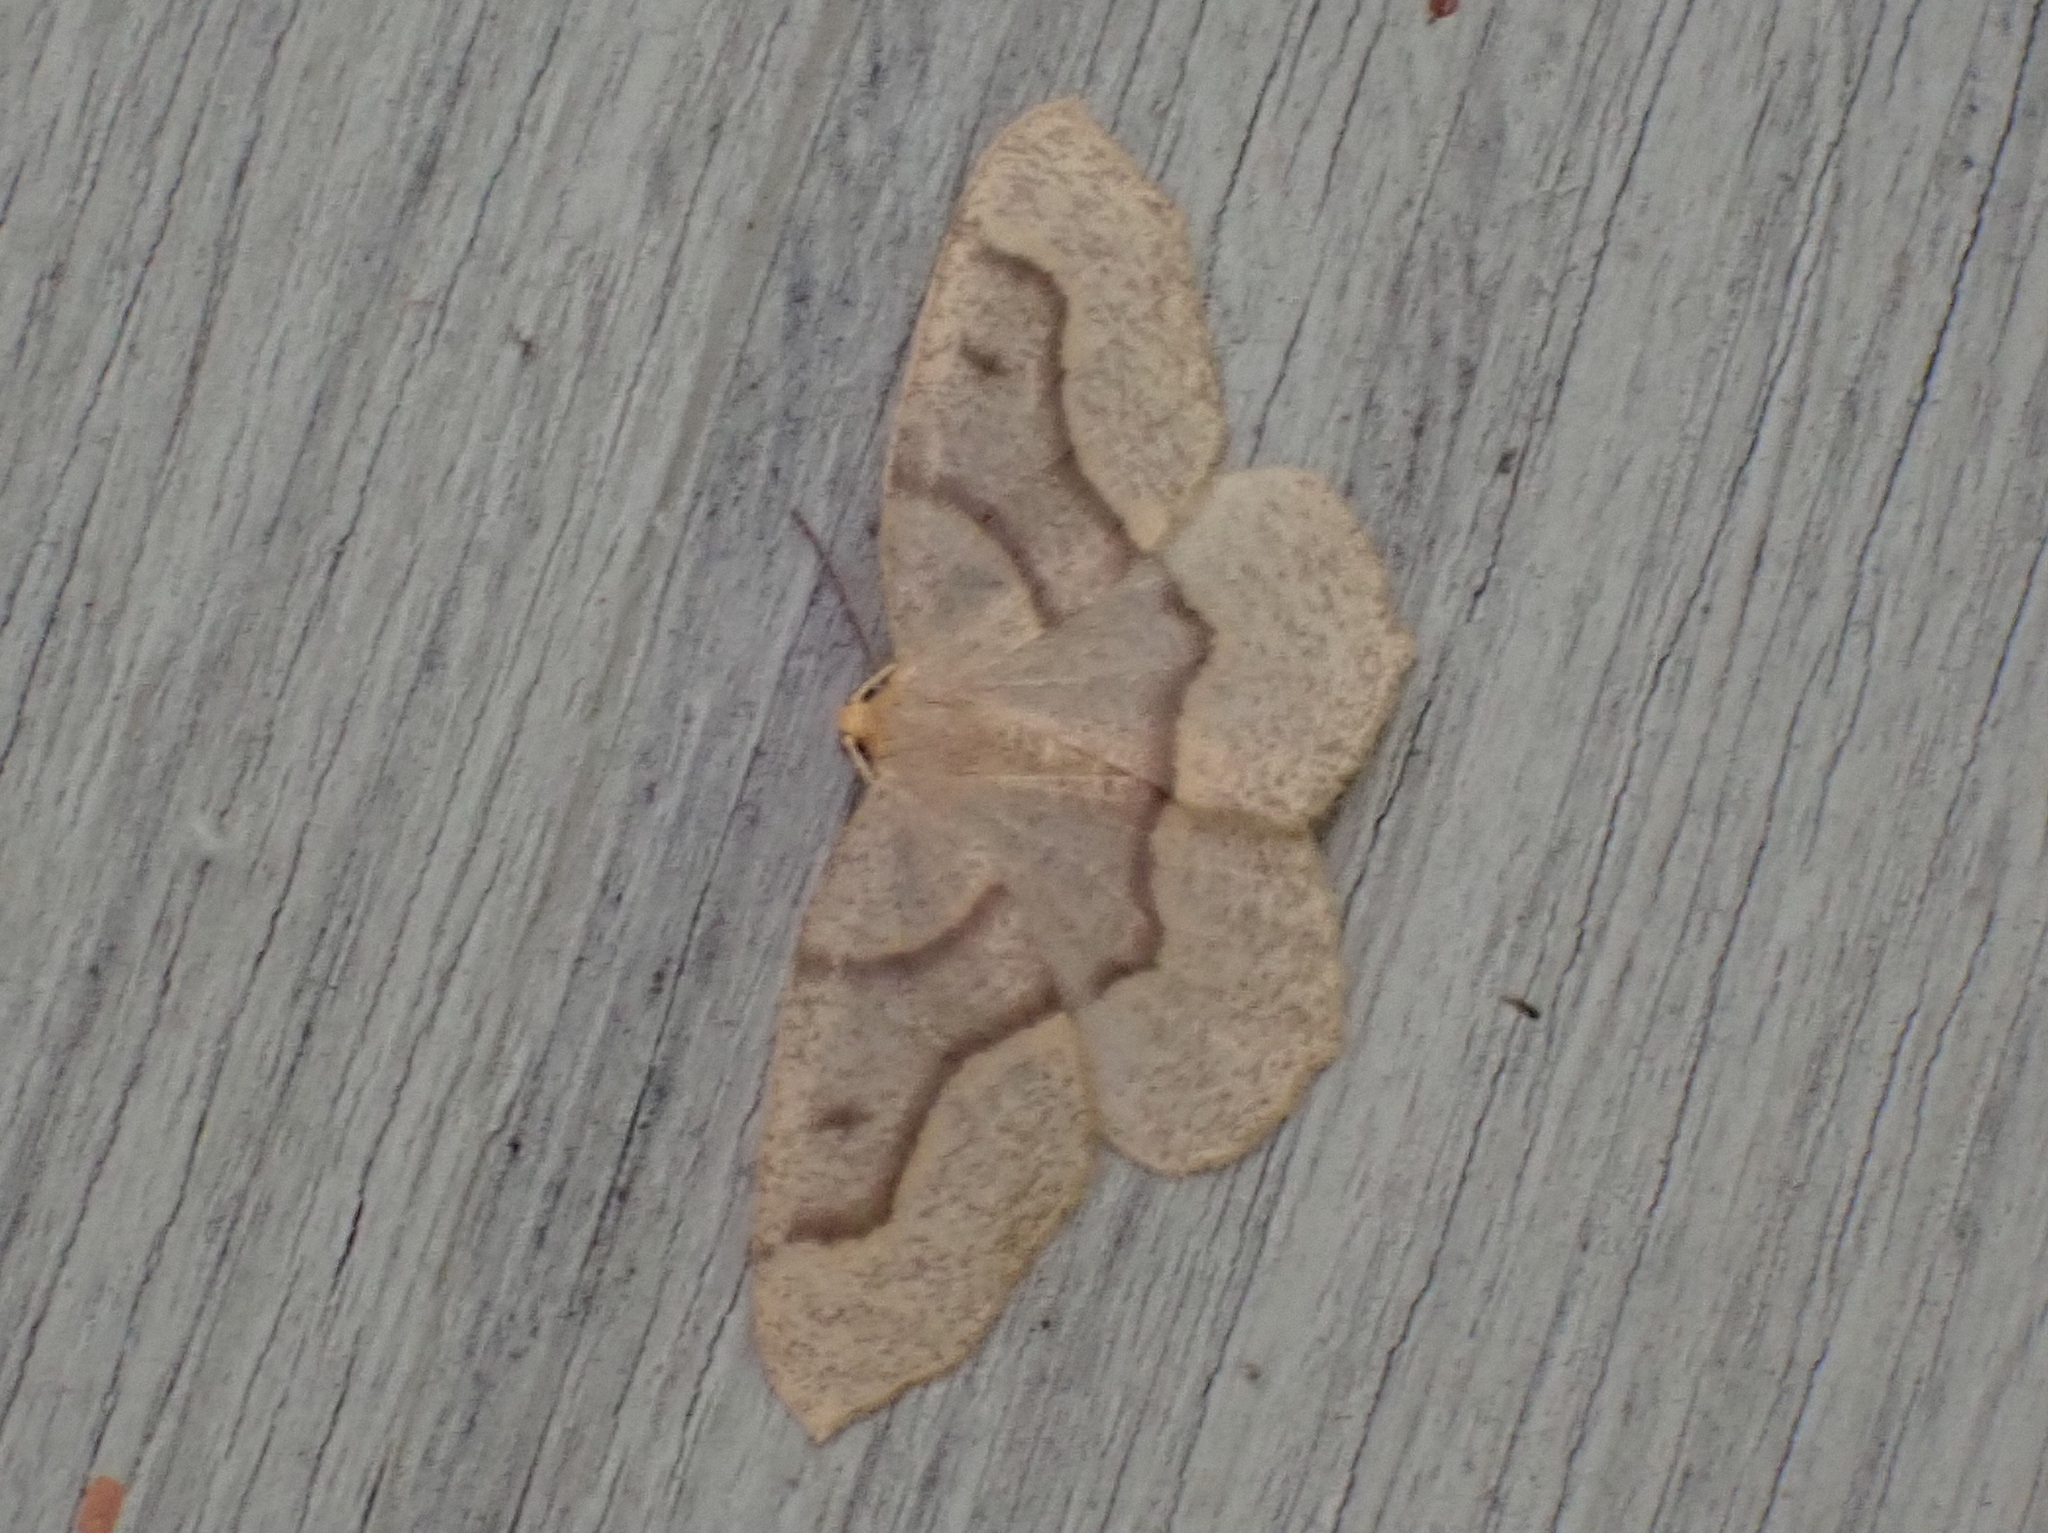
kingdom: Animalia
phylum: Arthropoda
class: Insecta
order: Lepidoptera
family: Geometridae
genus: Lambdina
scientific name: Lambdina fiscellaria
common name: Hemlock looper
